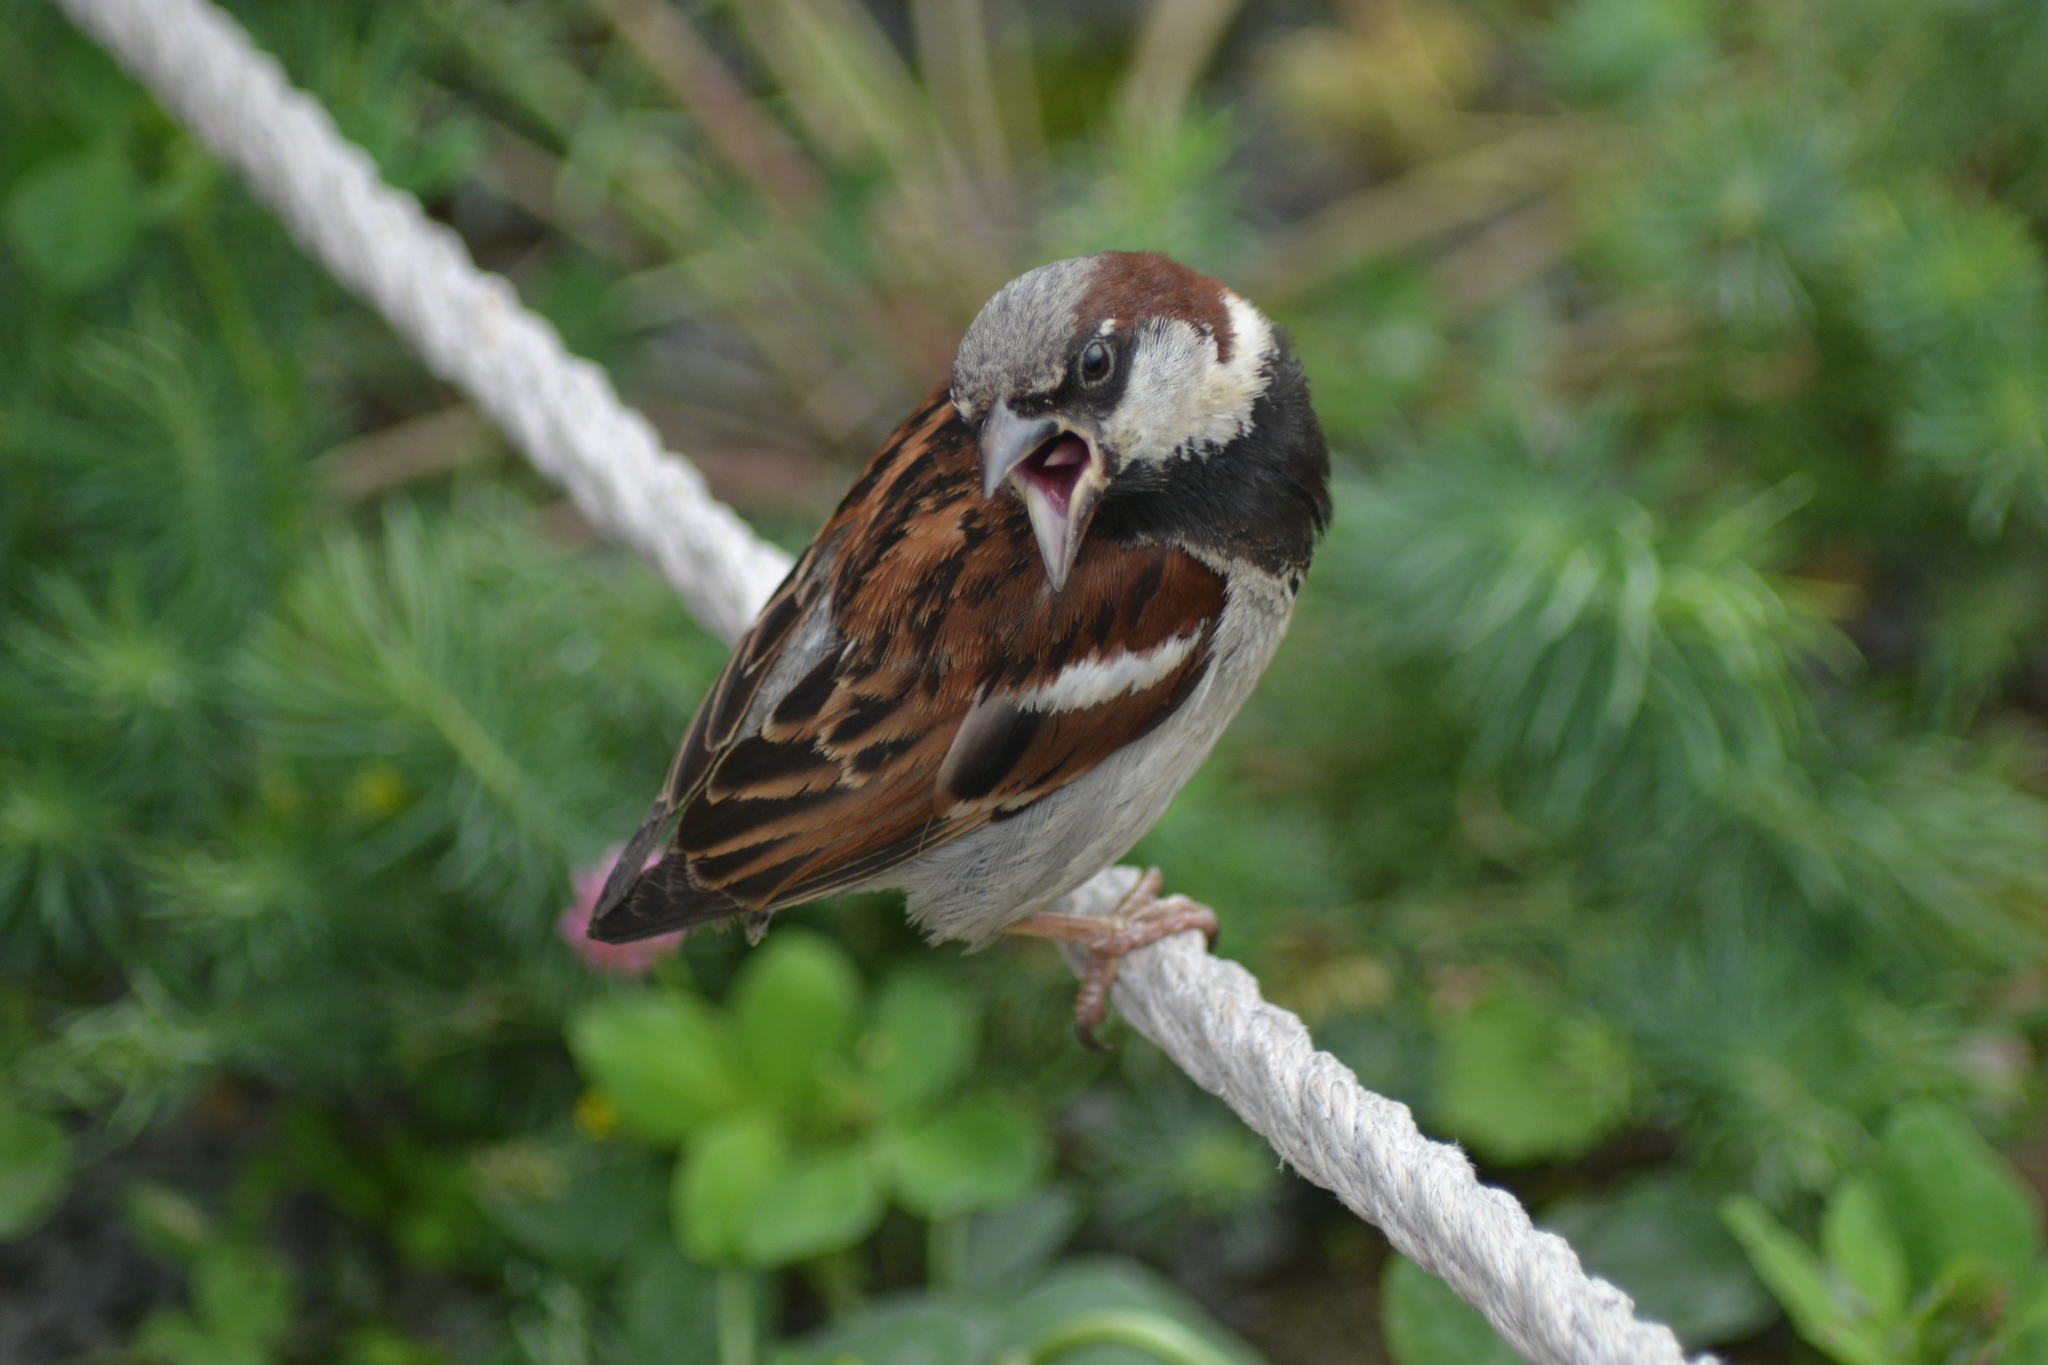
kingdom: Animalia
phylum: Chordata
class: Aves
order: Passeriformes
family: Passeridae
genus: Passer
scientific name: Passer domesticus
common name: House sparrow
